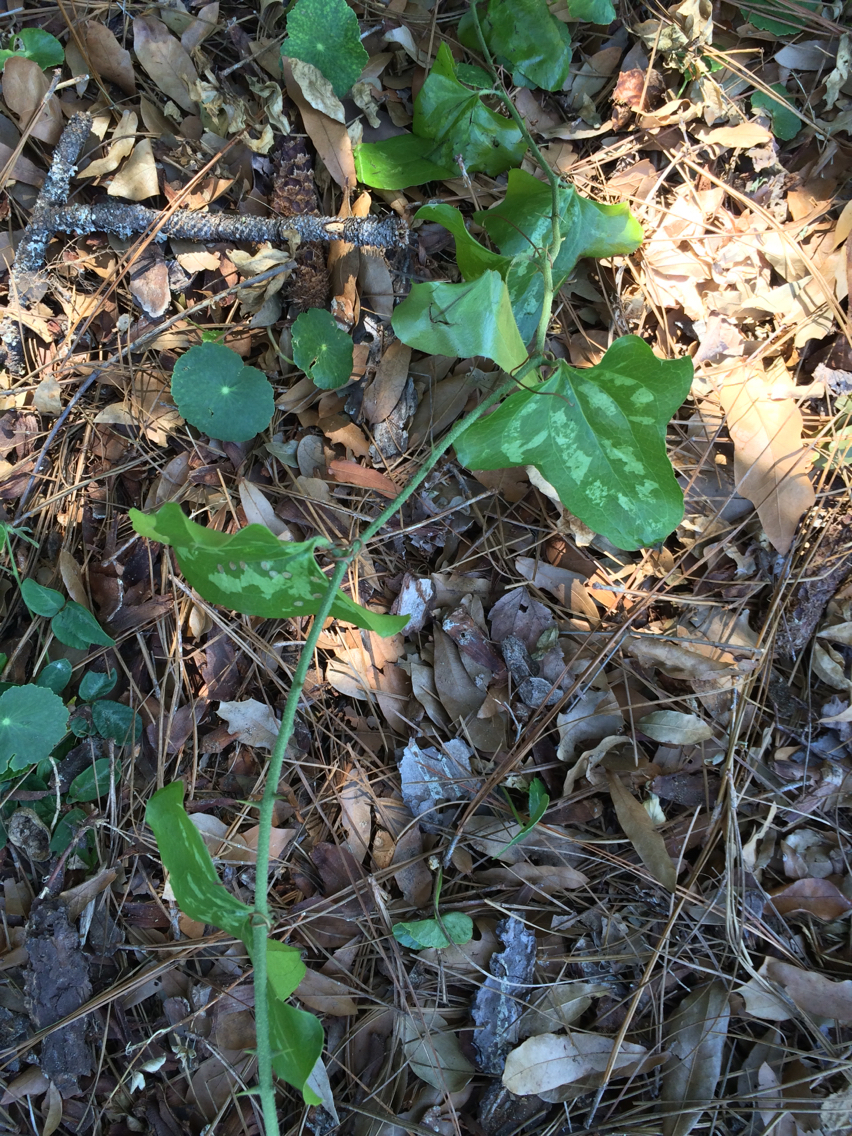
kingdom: Plantae
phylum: Tracheophyta
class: Liliopsida
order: Liliales
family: Smilacaceae
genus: Smilax
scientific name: Smilax bona-nox
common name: Catbrier
